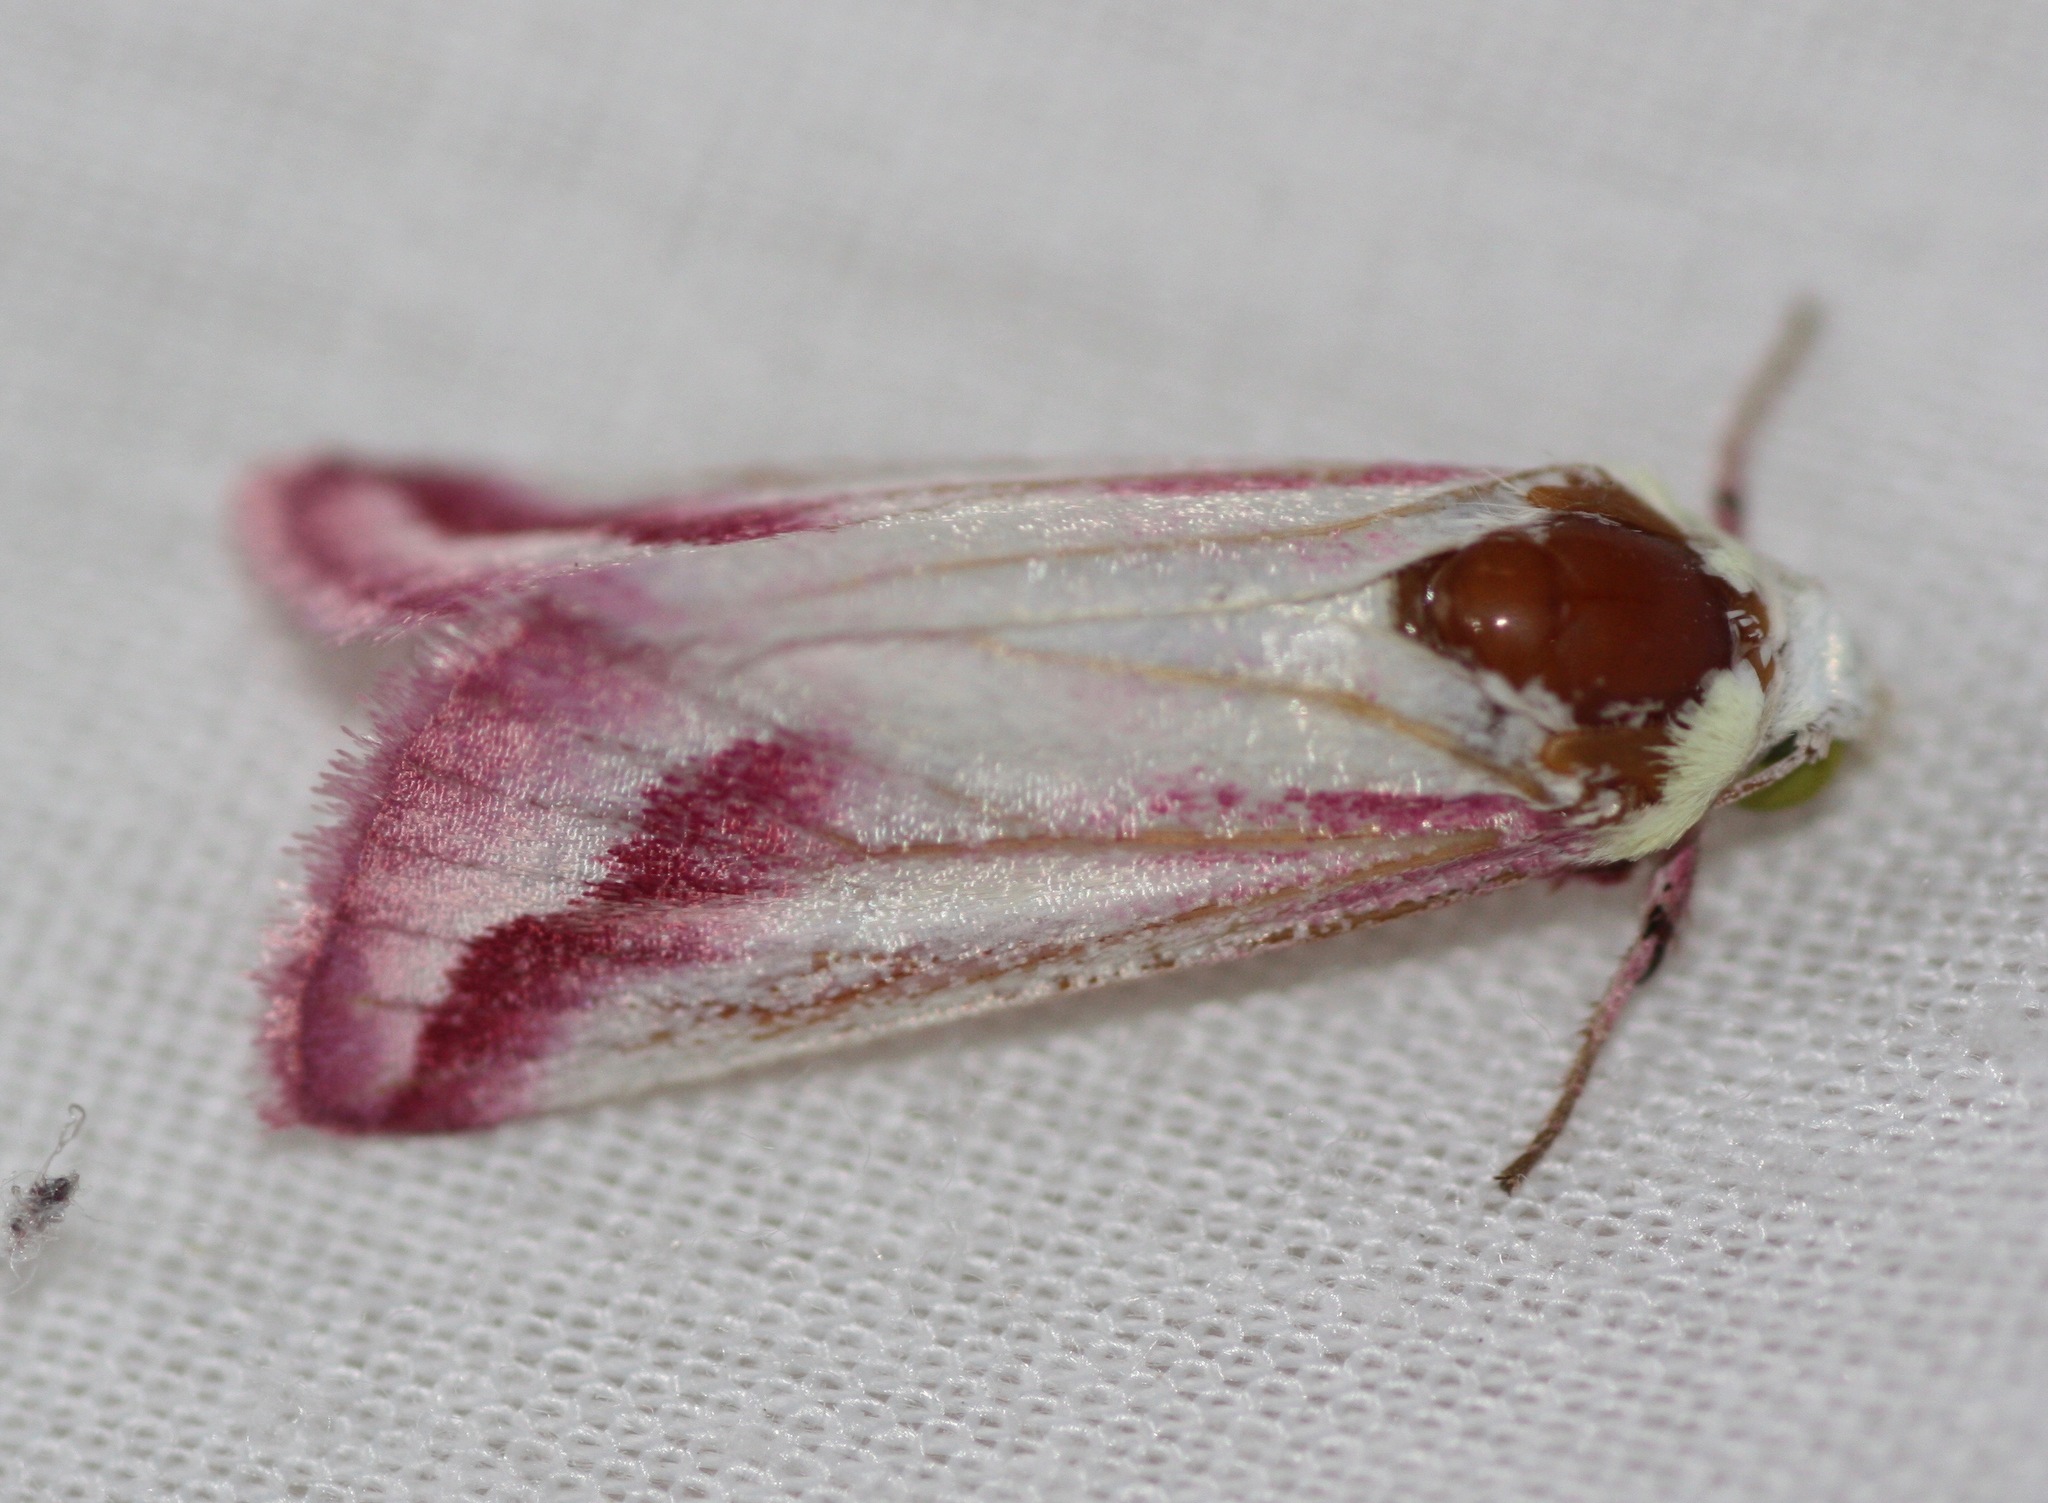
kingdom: Animalia
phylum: Arthropoda
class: Insecta
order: Lepidoptera
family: Noctuidae
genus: Schinia
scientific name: Schinia gaurae
